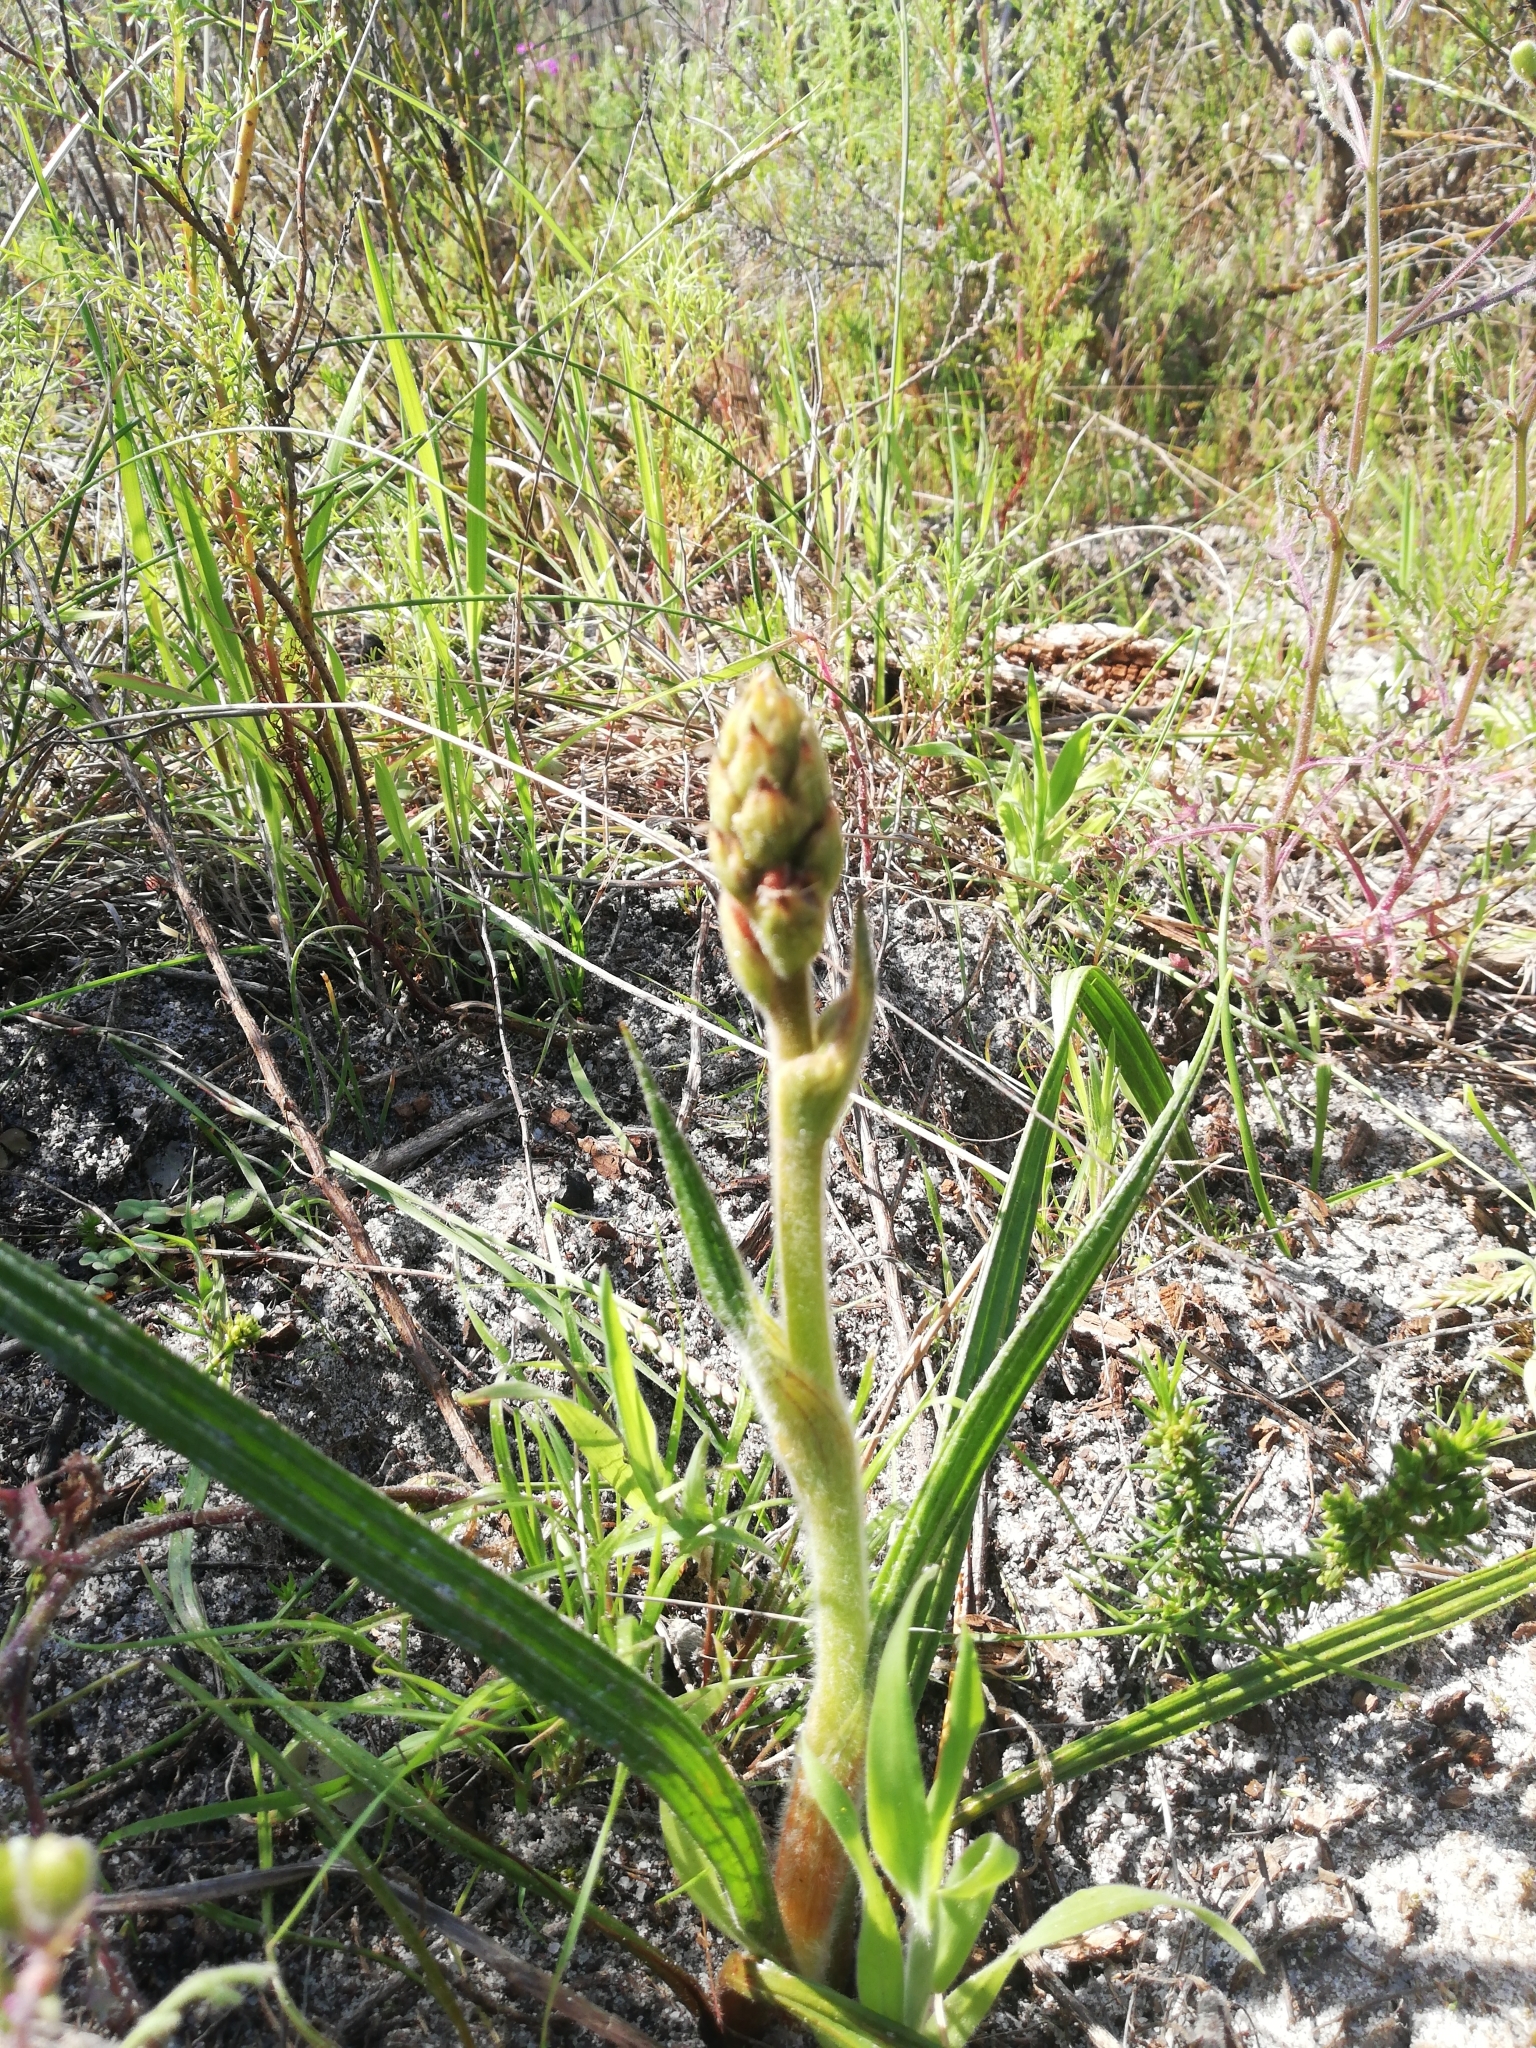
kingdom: Plantae
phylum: Tracheophyta
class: Liliopsida
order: Commelinales
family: Haemodoraceae
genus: Wachendorfia
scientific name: Wachendorfia paniculata
